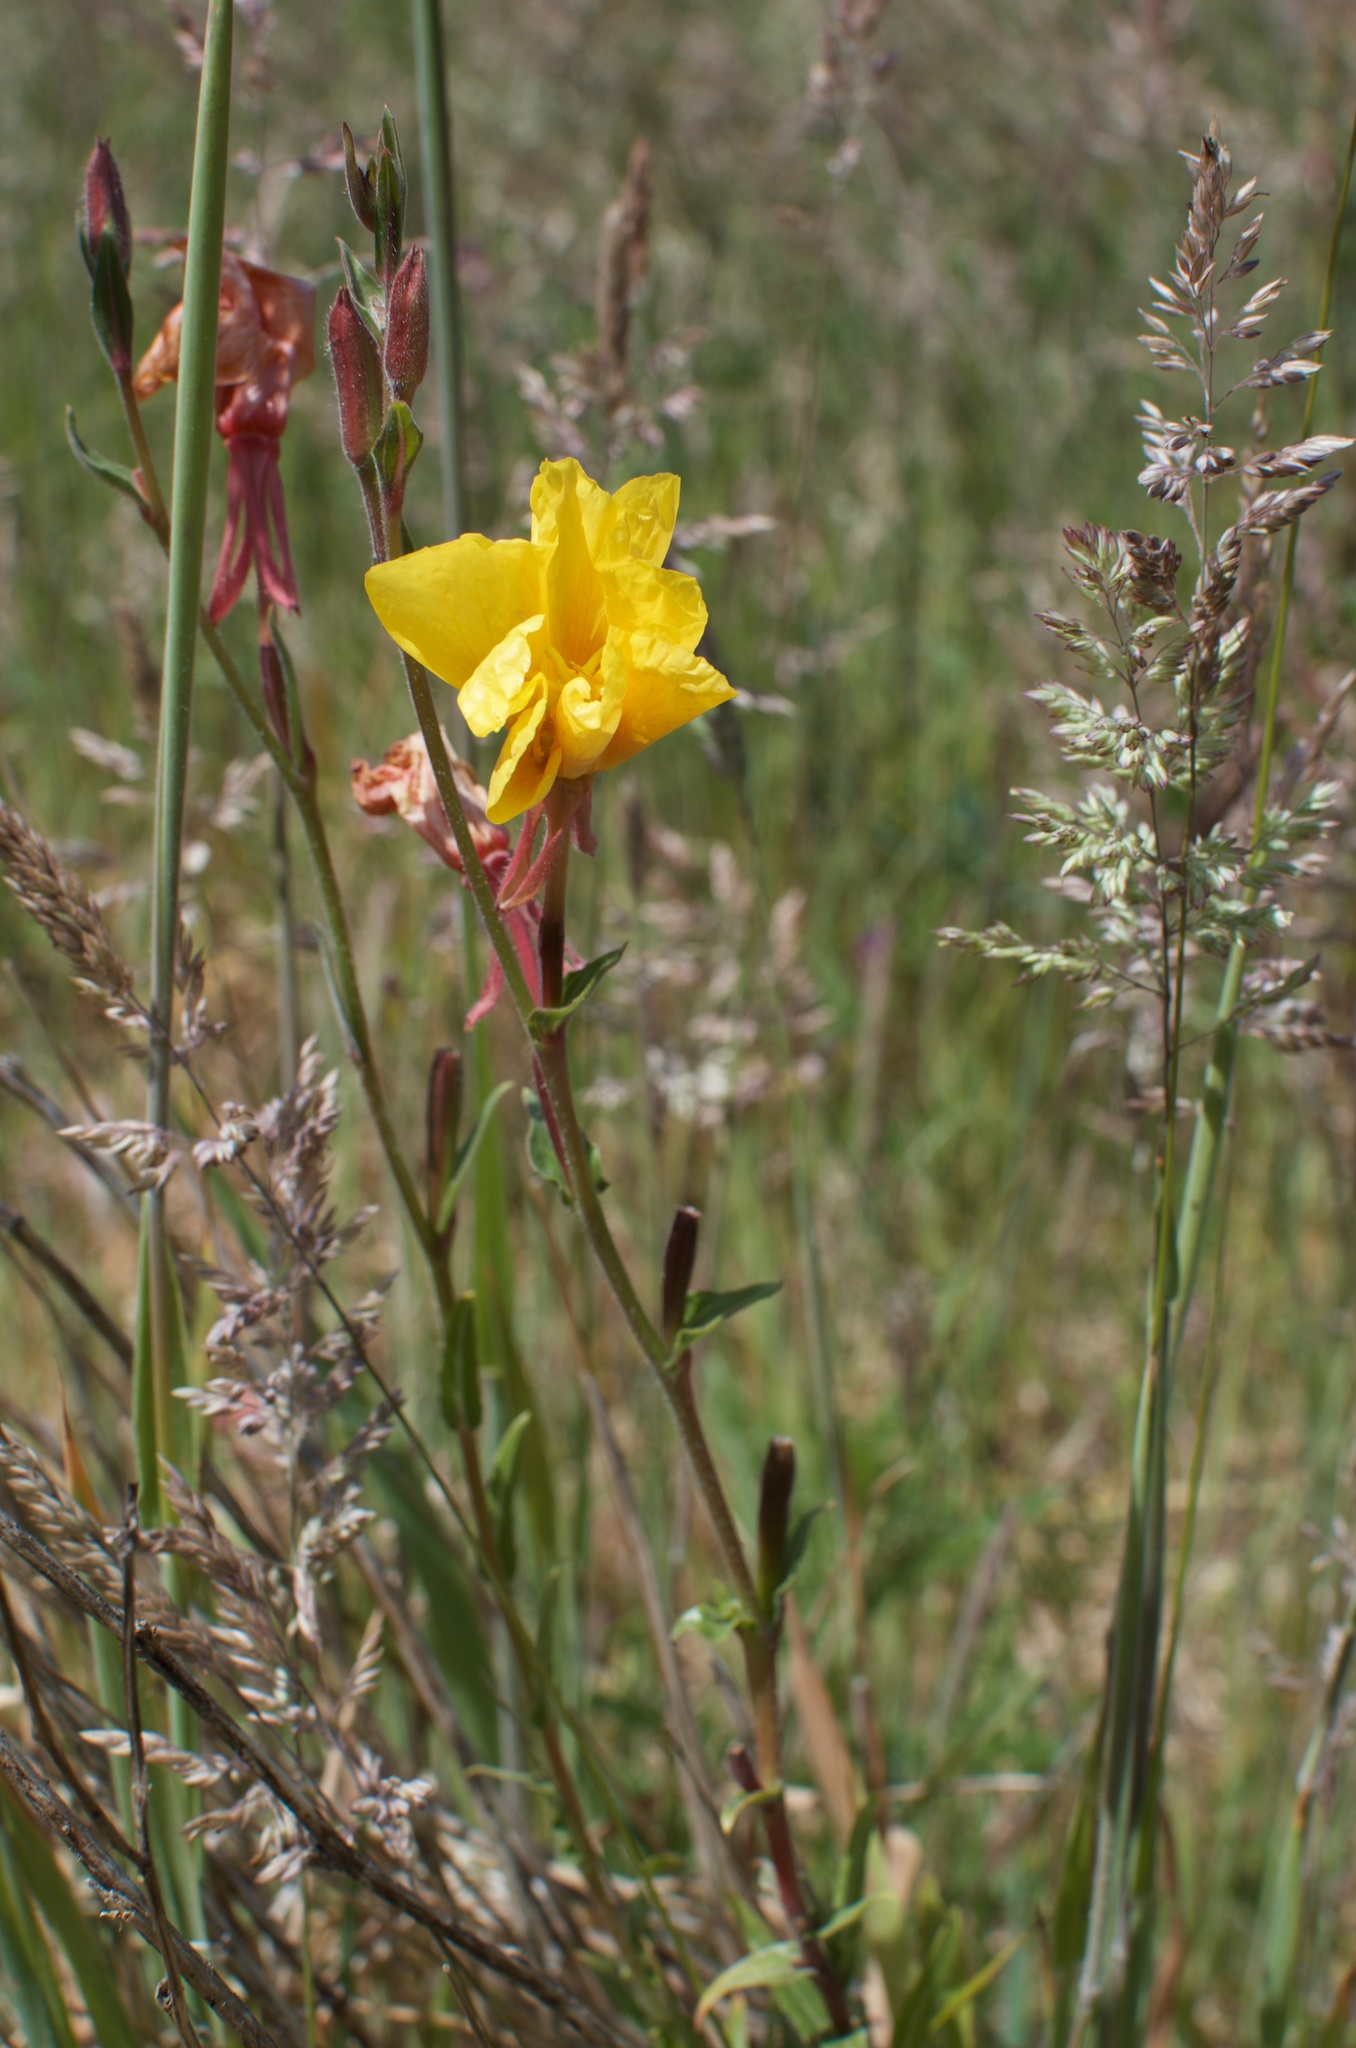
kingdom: Plantae
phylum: Tracheophyta
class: Magnoliopsida
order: Myrtales
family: Onagraceae
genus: Oenothera
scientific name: Oenothera stricta
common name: Fragrant evening-primrose
